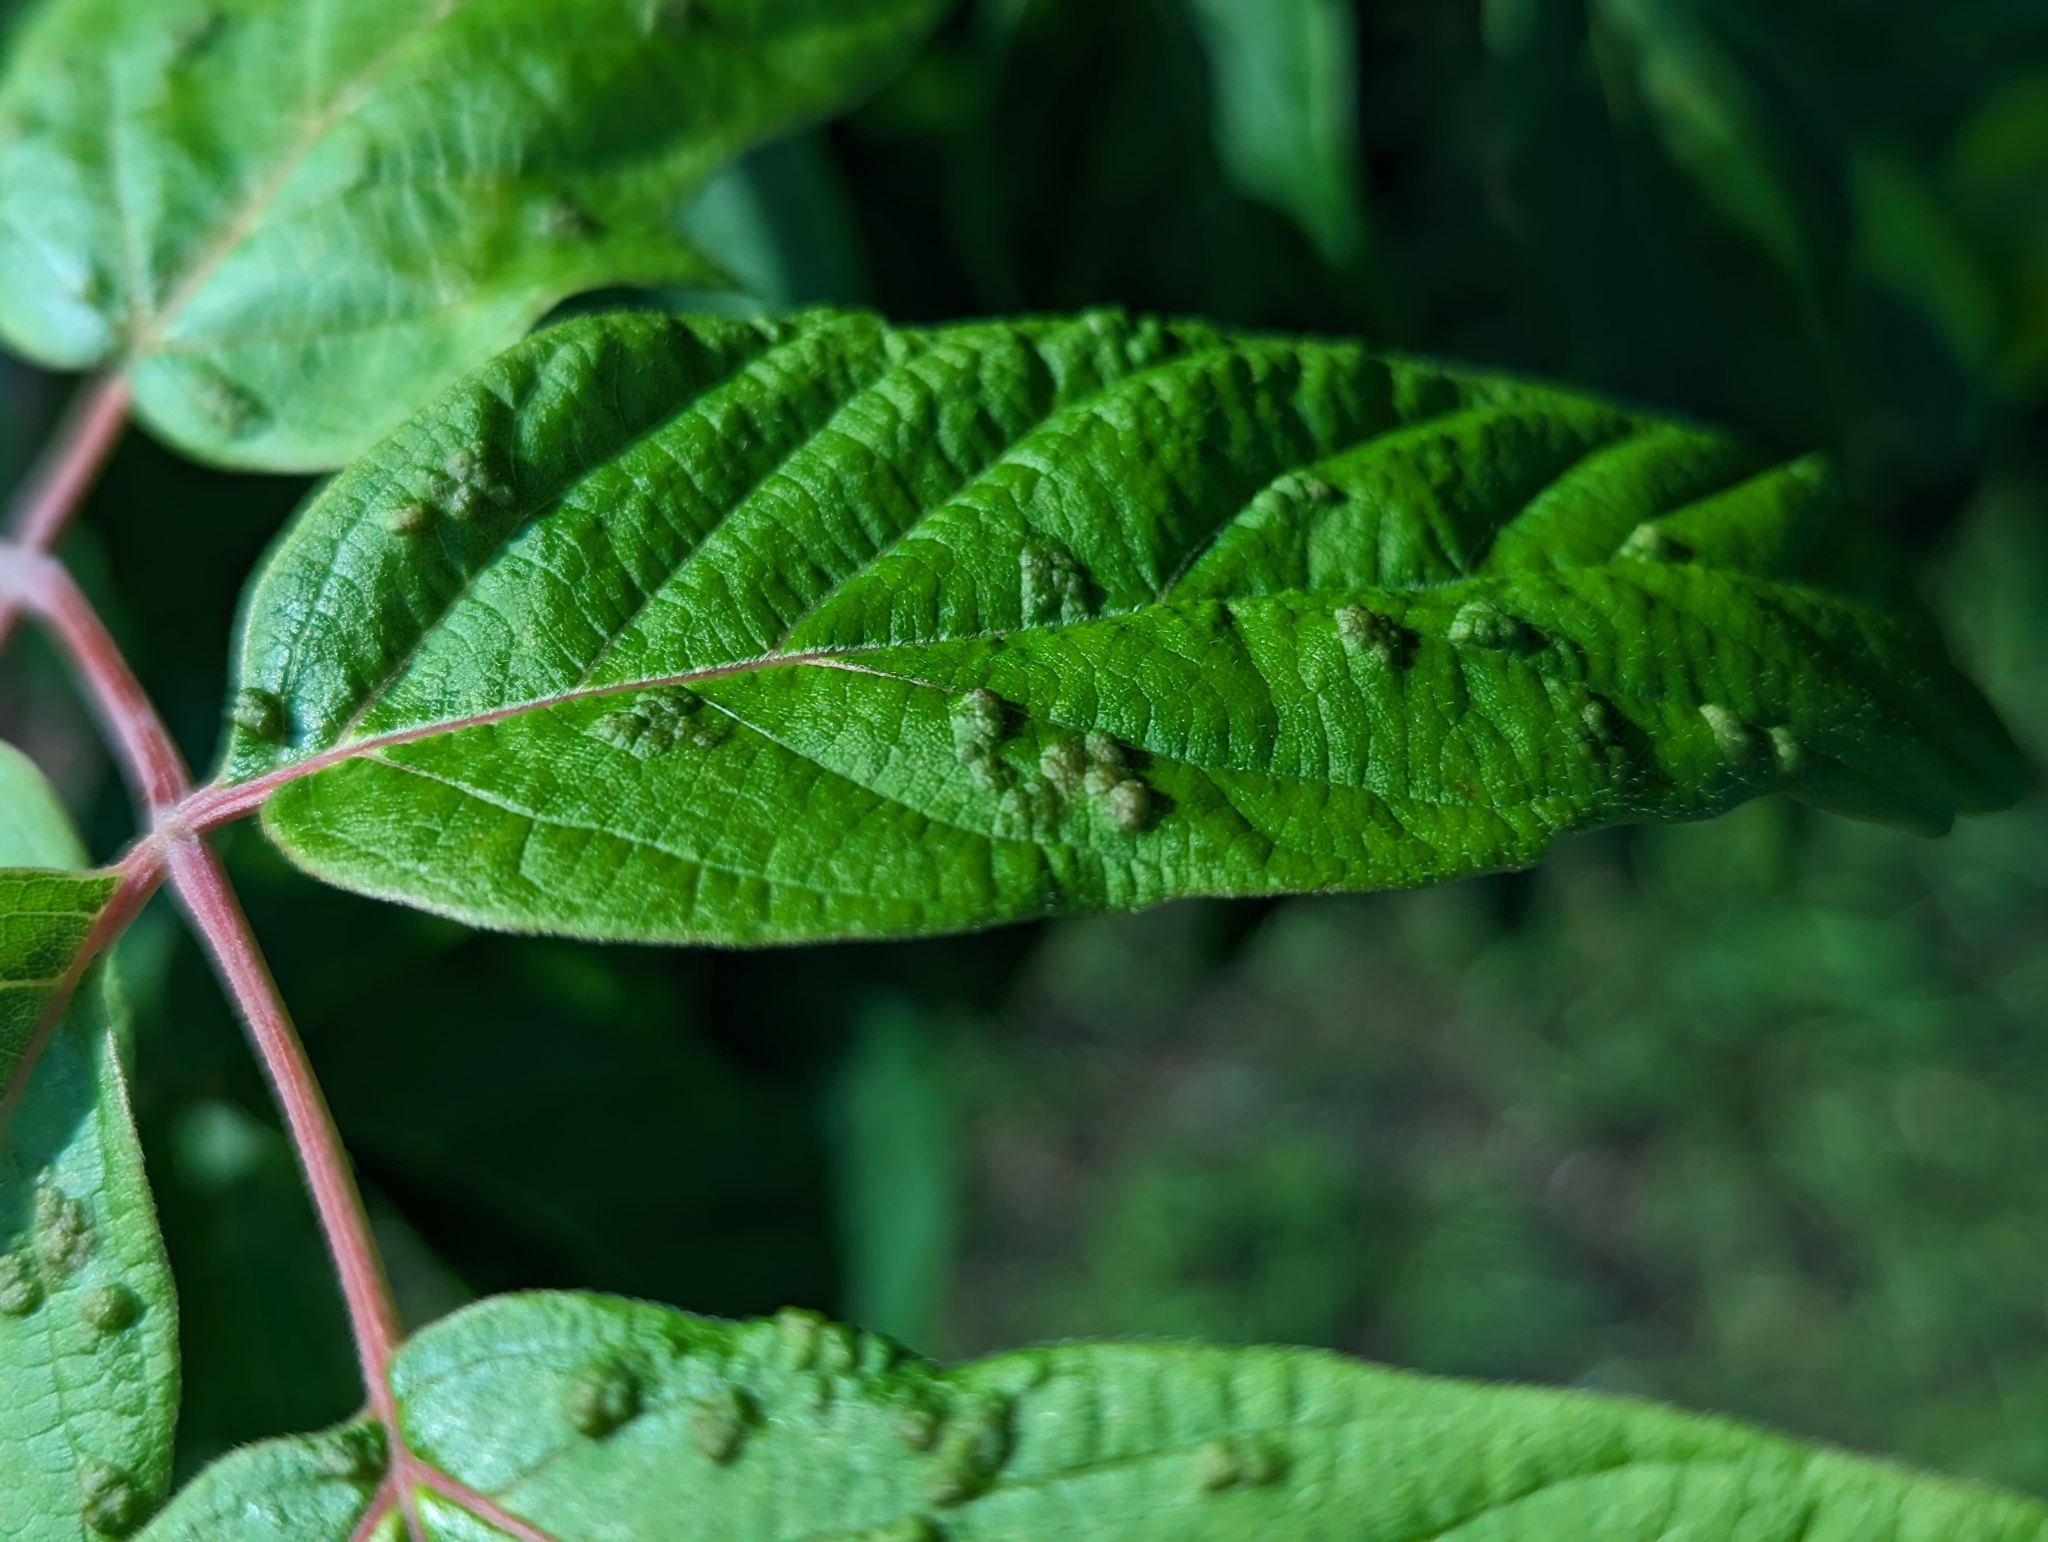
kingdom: Animalia
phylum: Arthropoda
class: Arachnida
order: Trombidiformes
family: Eriophyidae
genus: Aceria
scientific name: Aceria
